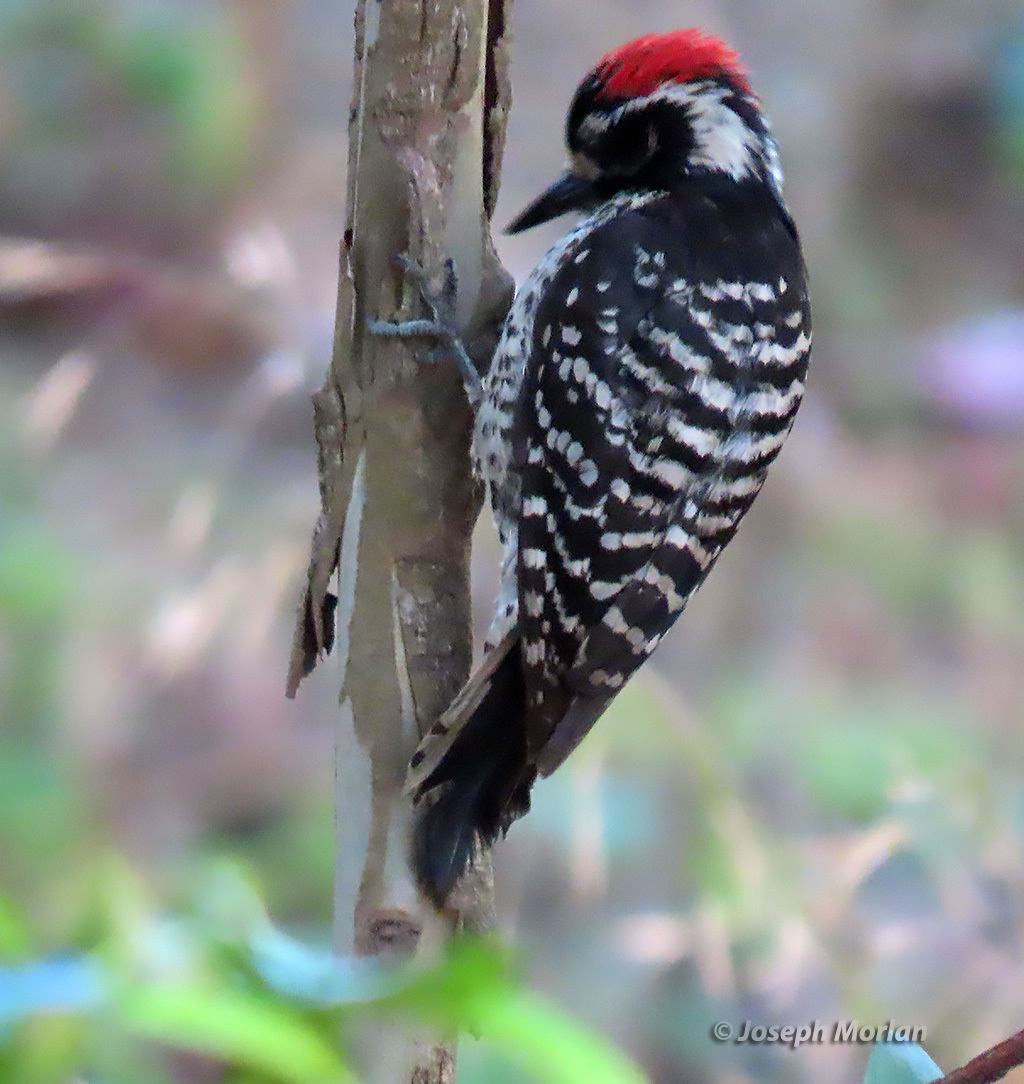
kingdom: Animalia
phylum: Chordata
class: Aves
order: Piciformes
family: Picidae
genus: Dryobates
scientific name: Dryobates nuttallii
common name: Nuttall's woodpecker
